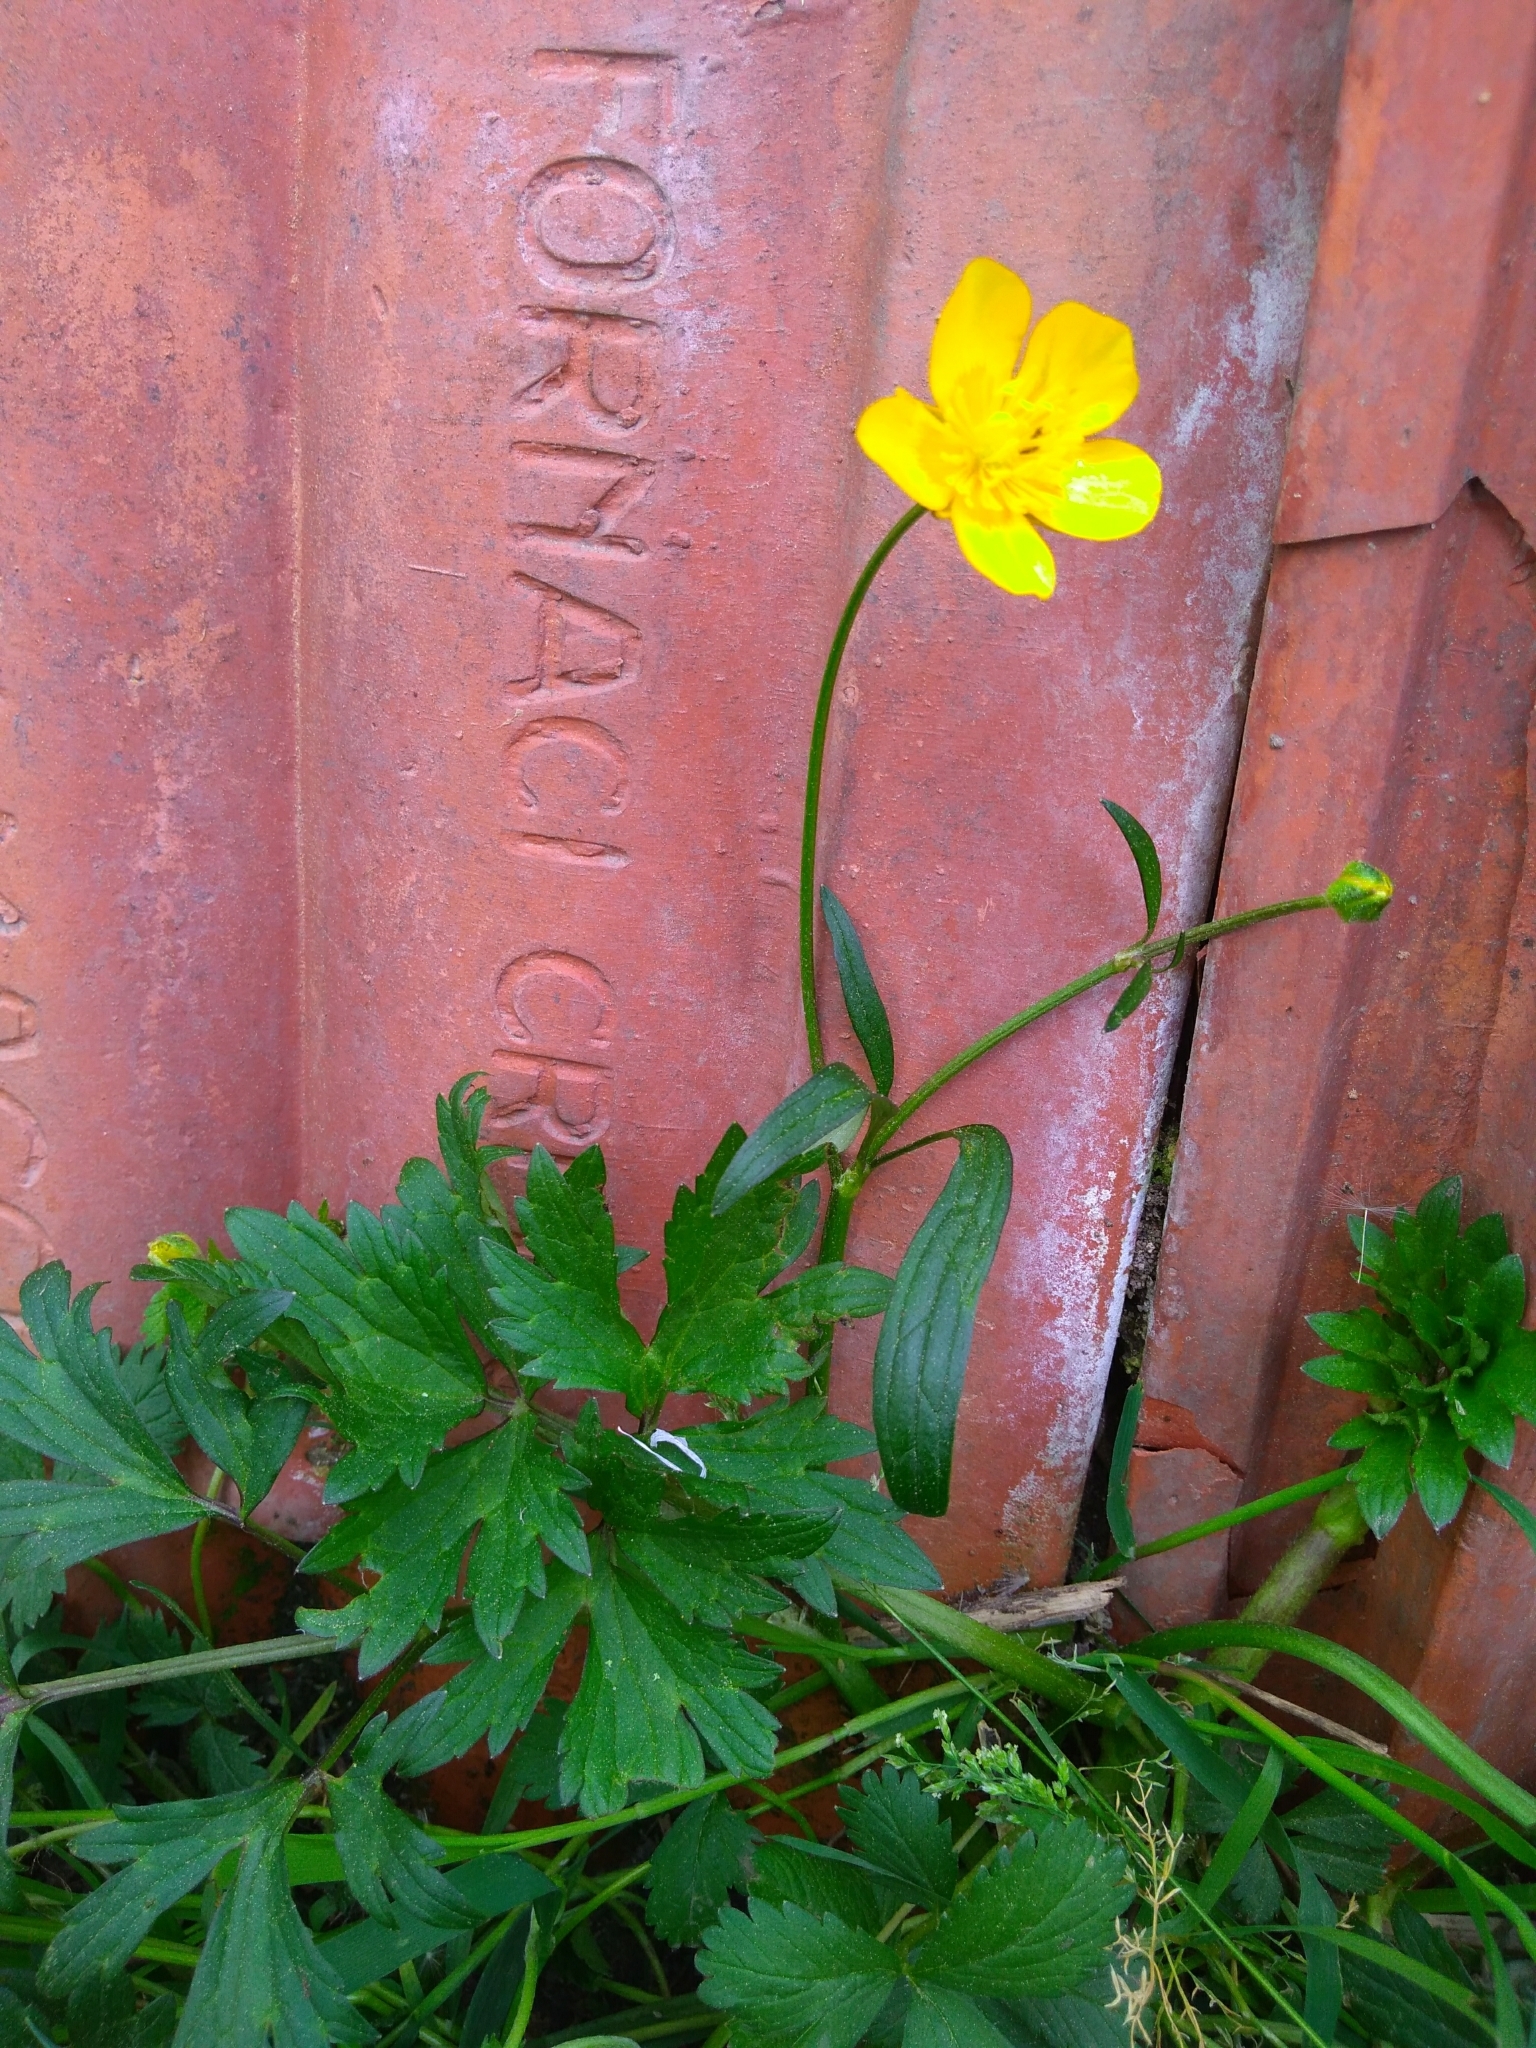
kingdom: Plantae
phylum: Tracheophyta
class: Magnoliopsida
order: Ranunculales
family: Ranunculaceae
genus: Ranunculus
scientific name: Ranunculus repens
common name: Creeping buttercup
